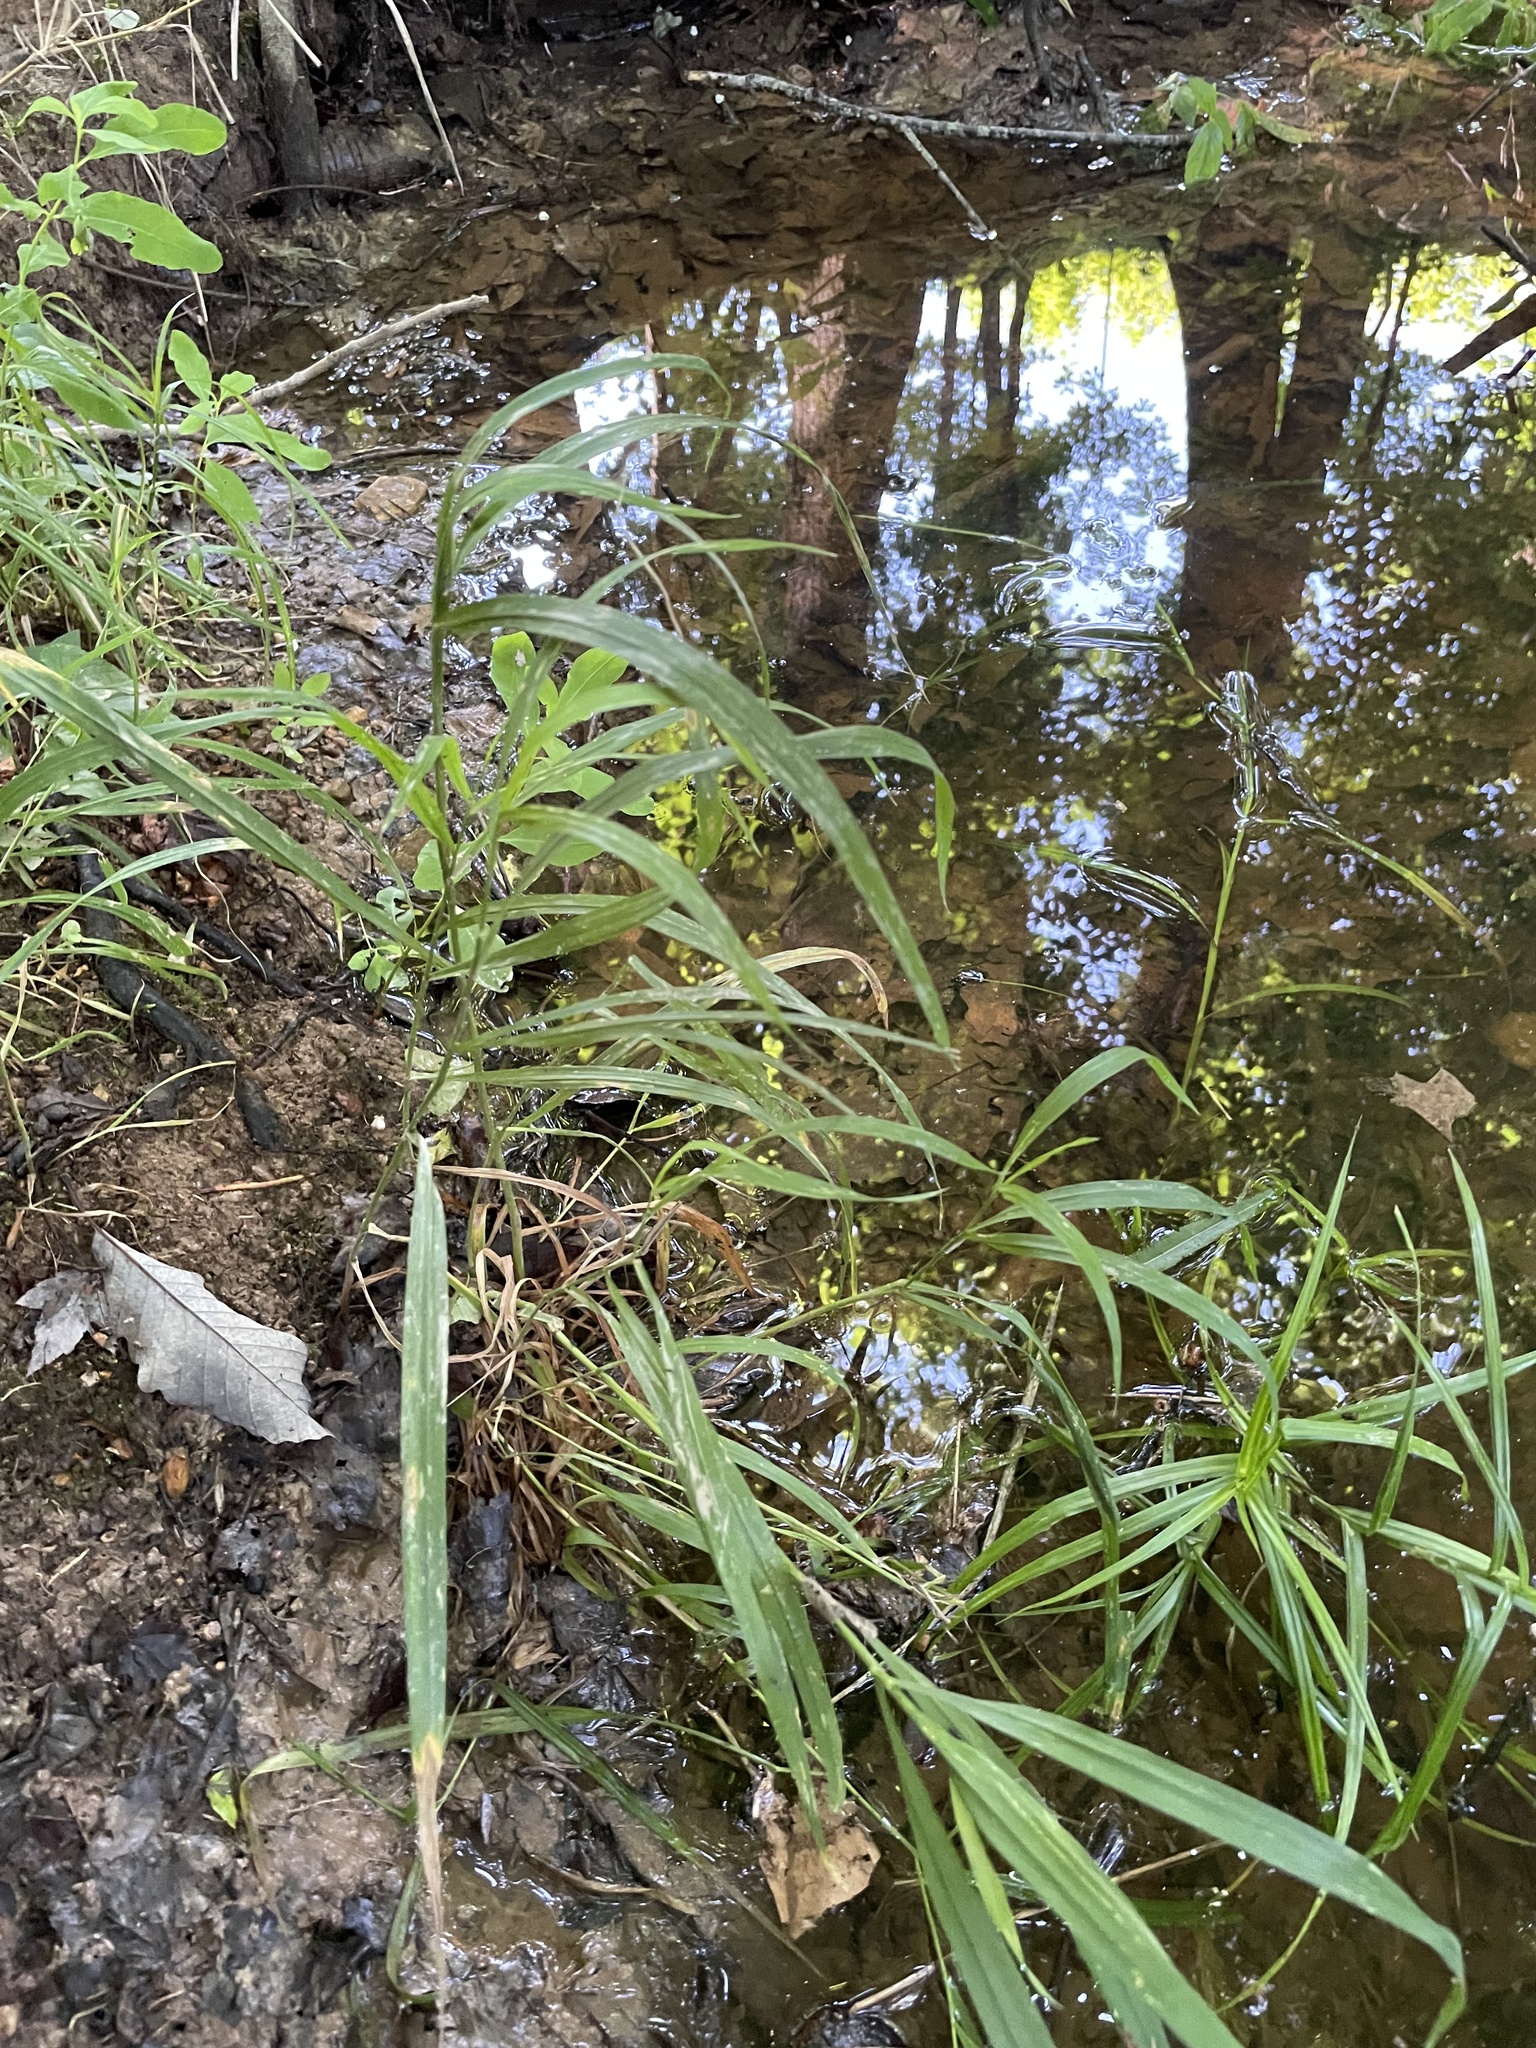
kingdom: Plantae
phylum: Tracheophyta
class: Liliopsida
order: Poales
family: Cyperaceae
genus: Dulichium
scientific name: Dulichium arundinaceum
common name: Three-way sedge
